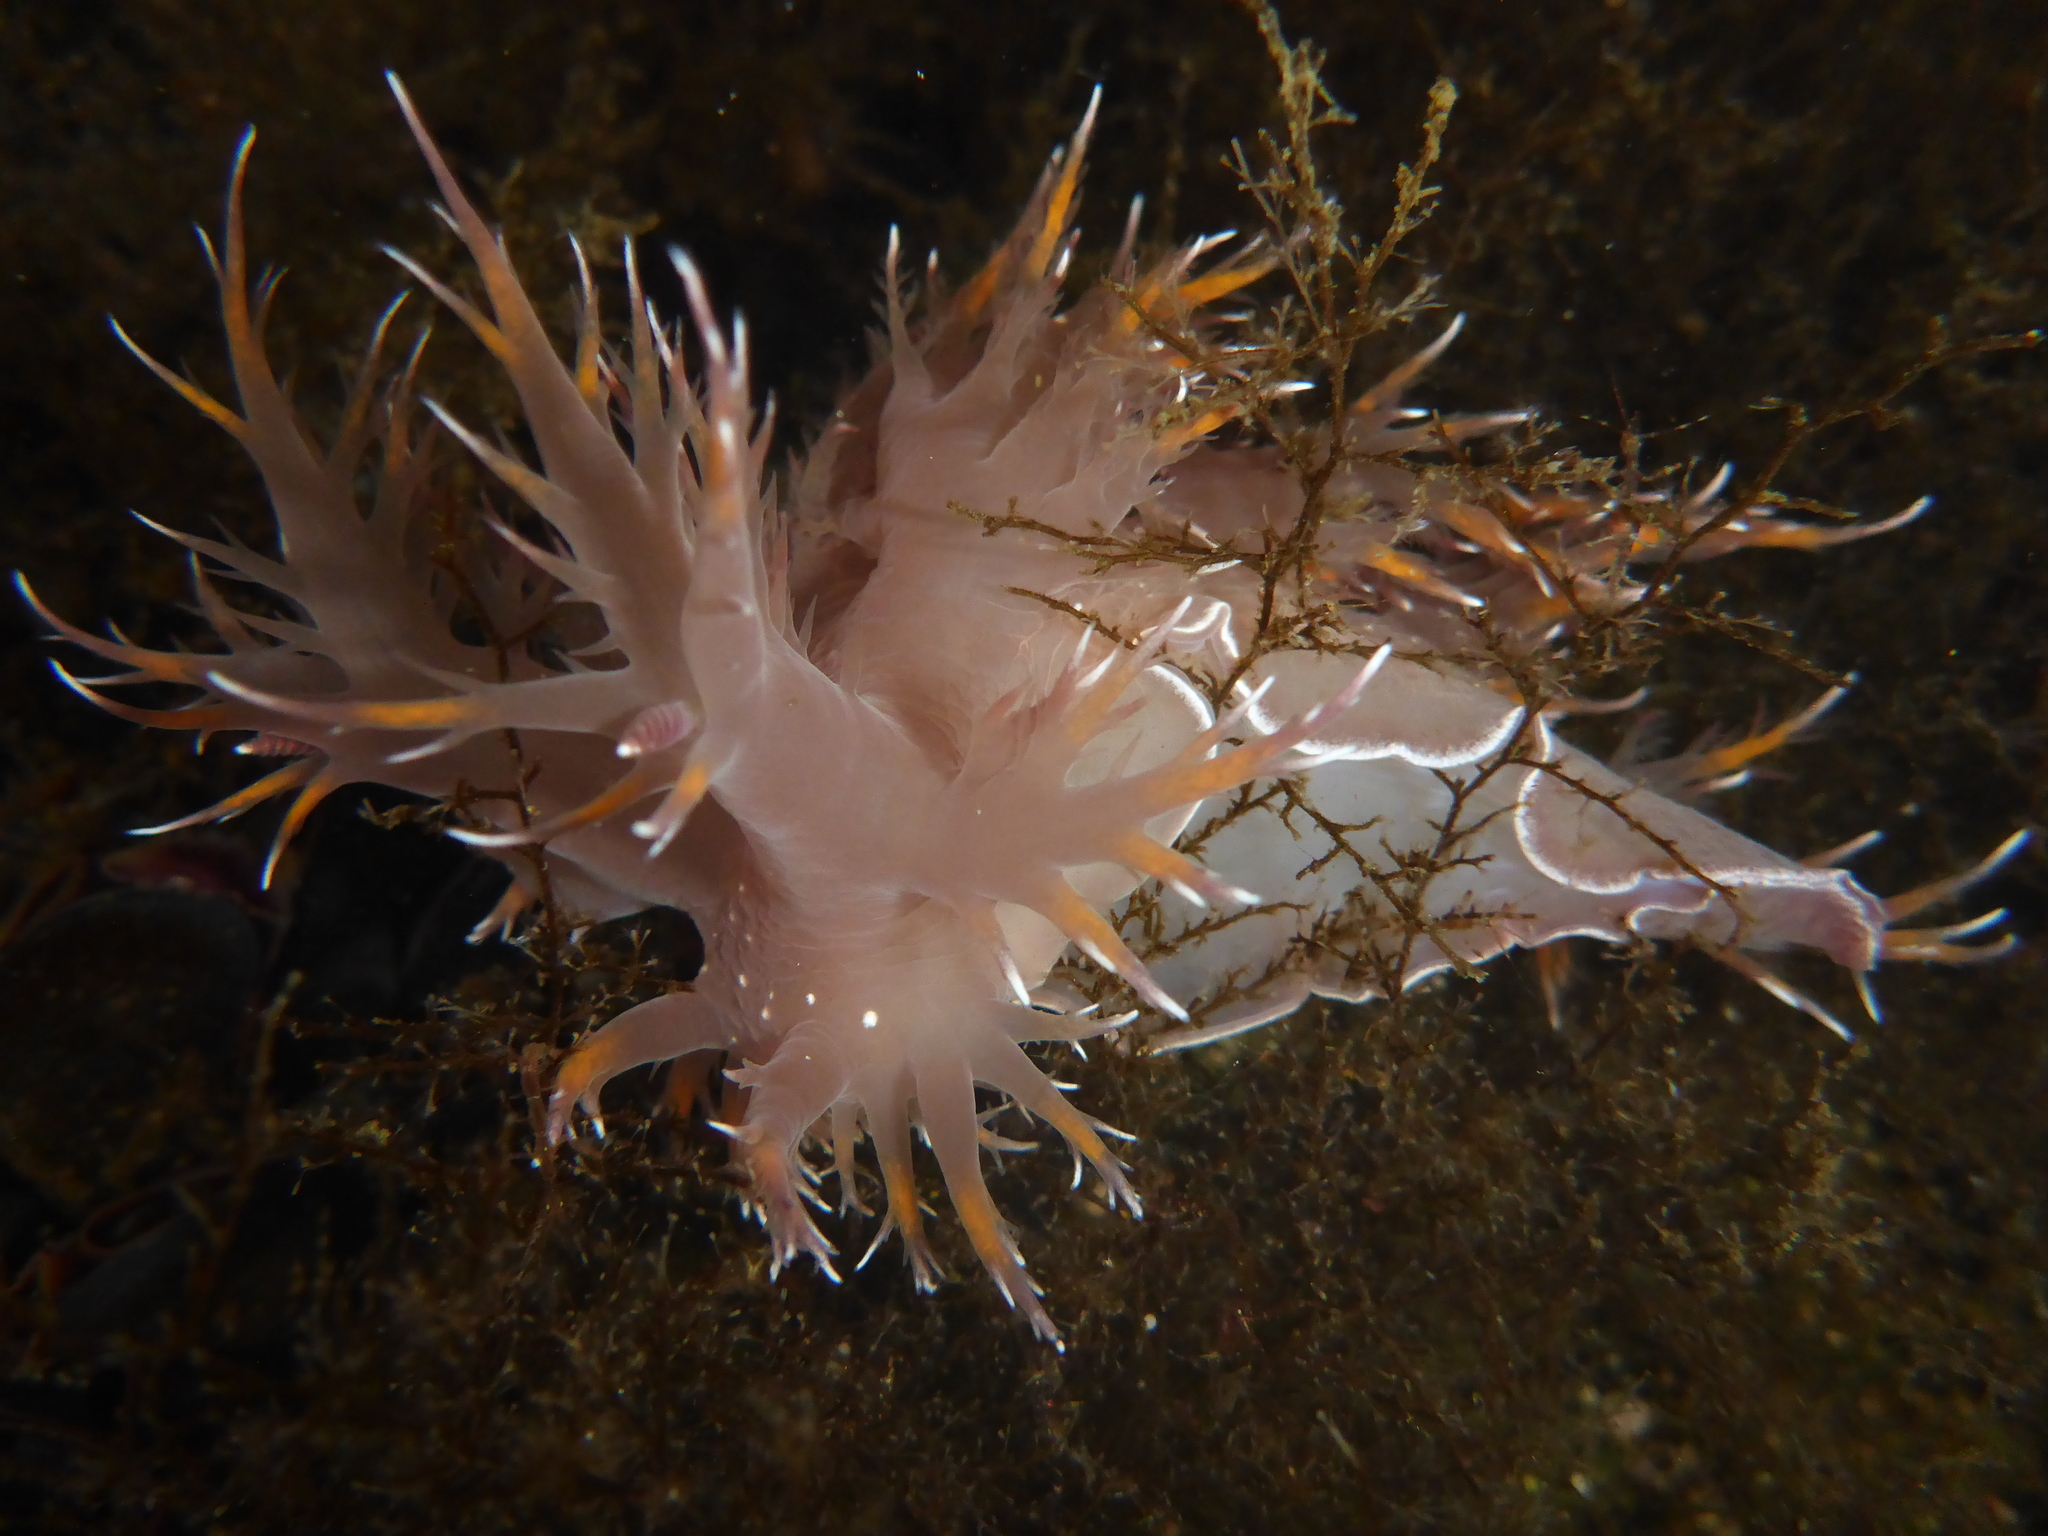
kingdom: Animalia
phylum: Mollusca
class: Gastropoda
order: Nudibranchia
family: Dendronotidae
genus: Dendronotus
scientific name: Dendronotus iris
